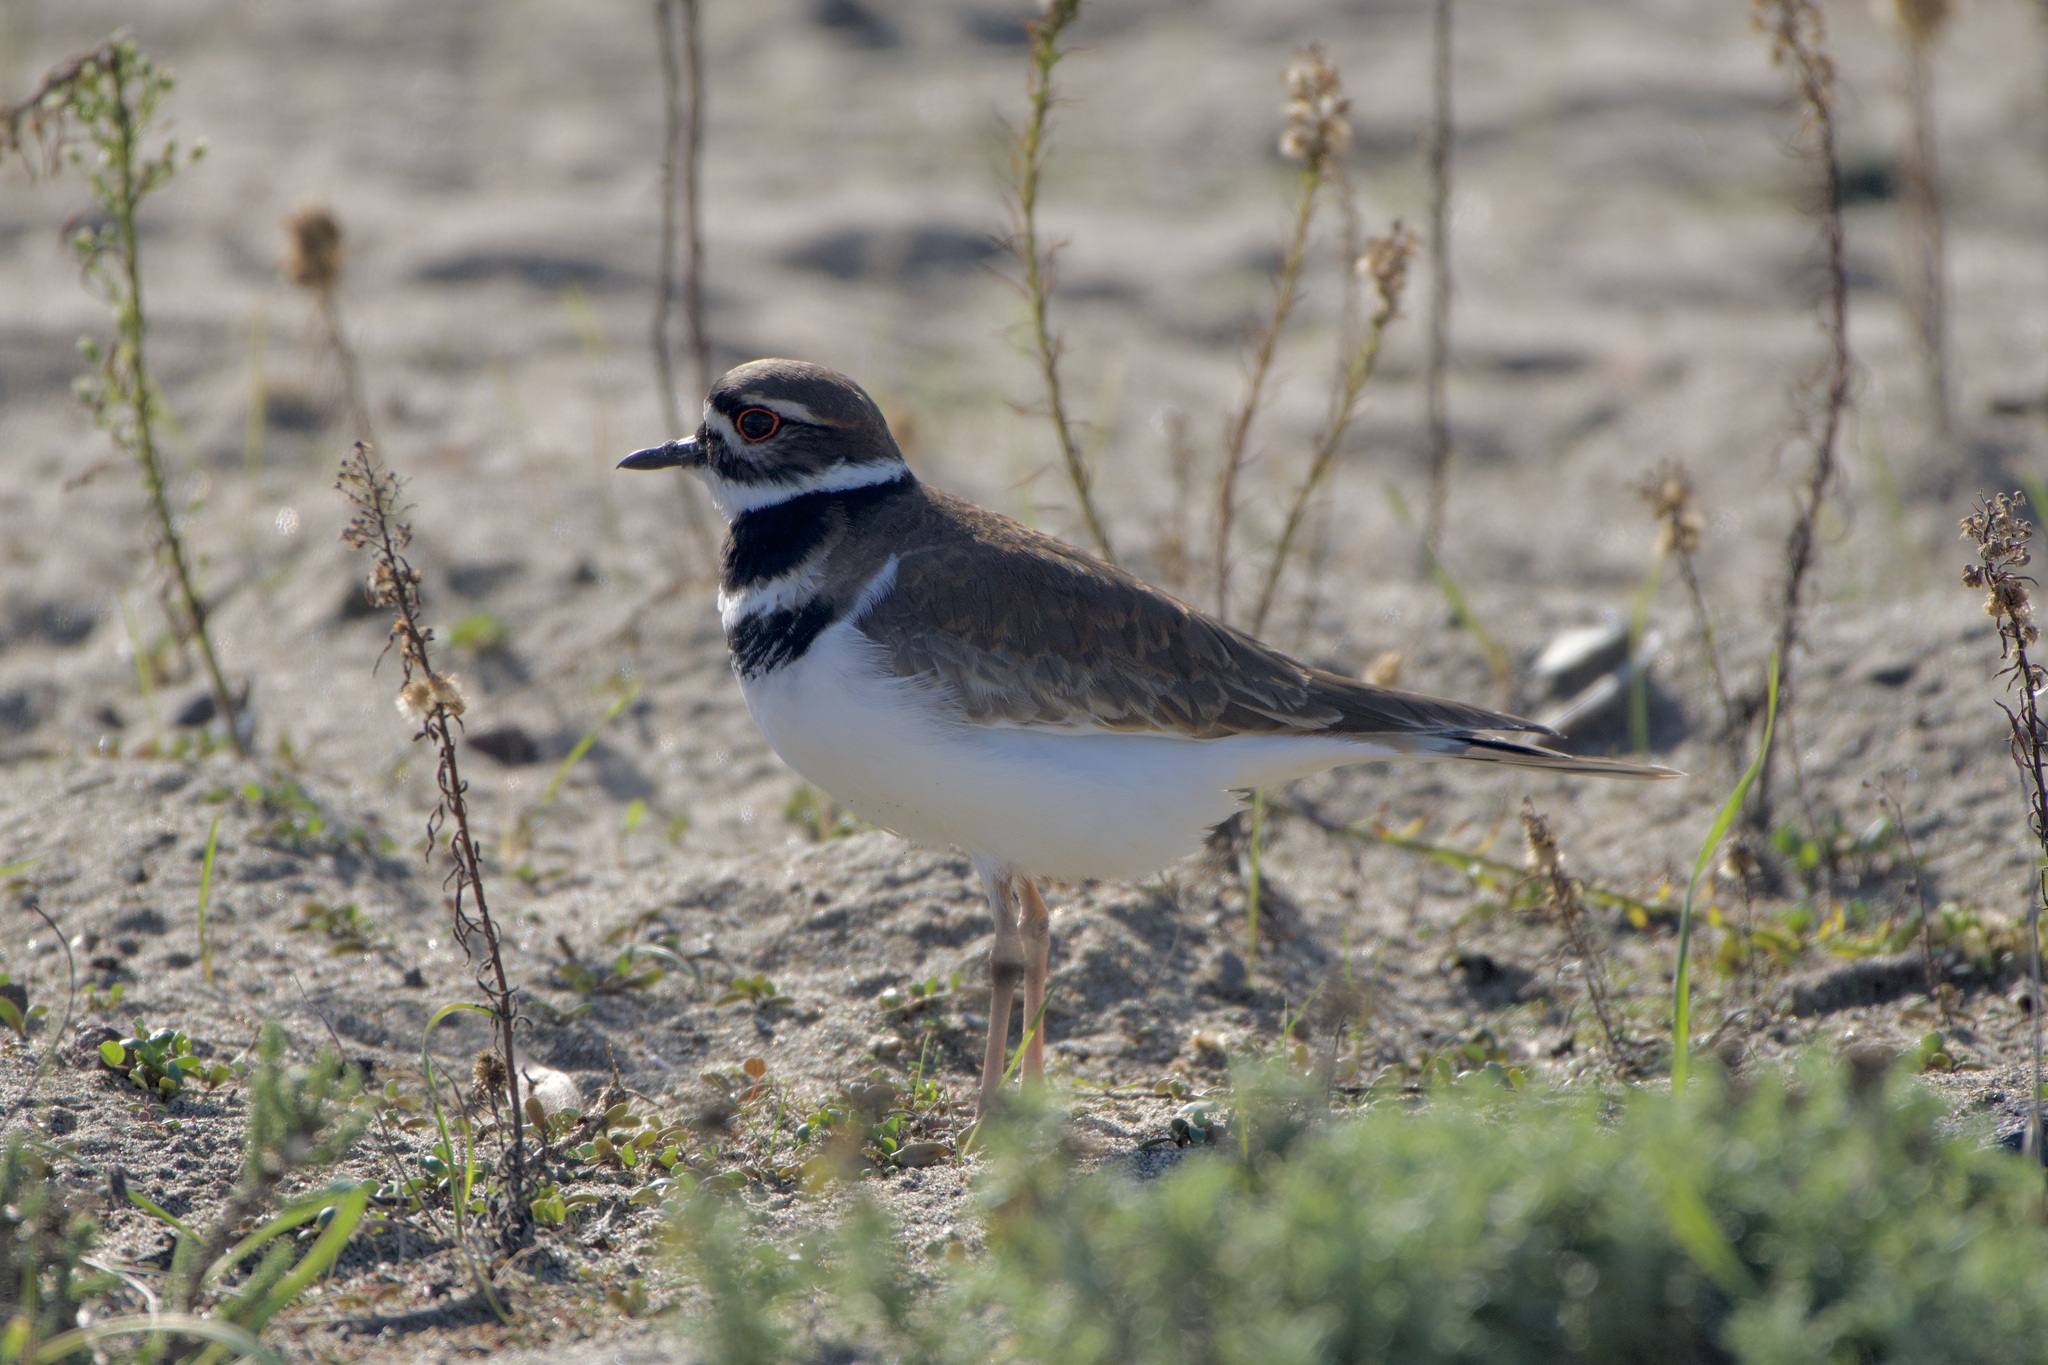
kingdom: Animalia
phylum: Chordata
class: Aves
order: Charadriiformes
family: Charadriidae
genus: Charadrius
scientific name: Charadrius vociferus
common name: Killdeer
